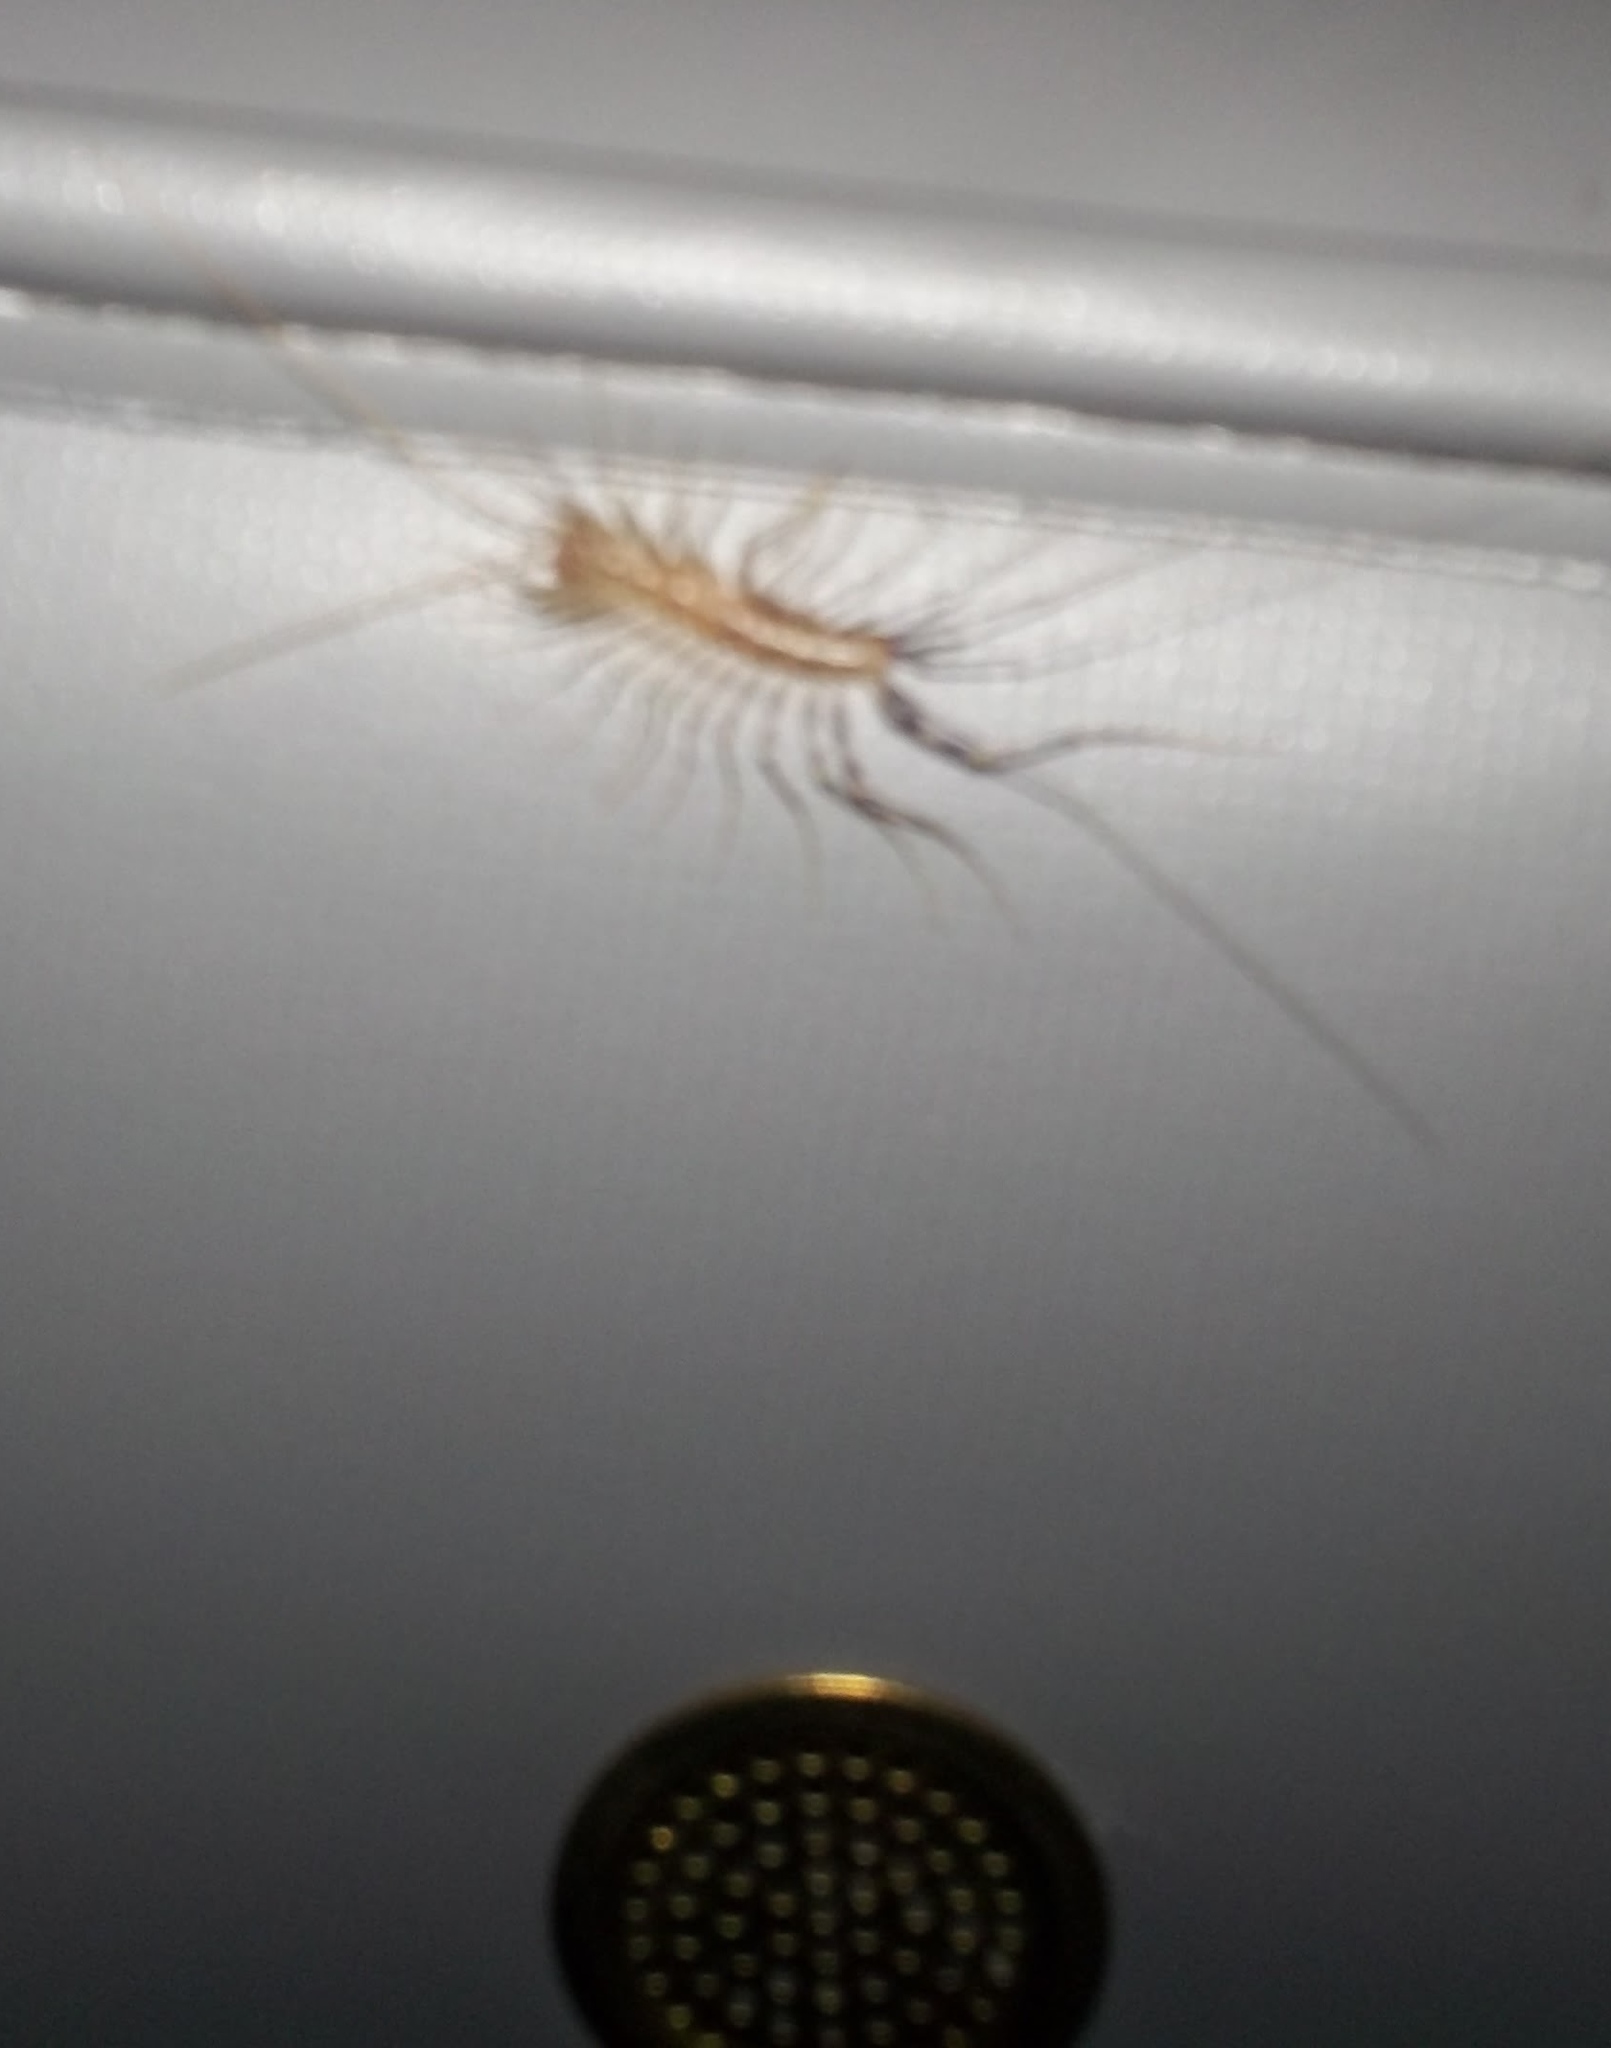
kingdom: Animalia
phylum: Arthropoda
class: Chilopoda
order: Scutigeromorpha
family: Scutigeridae
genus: Scutigera
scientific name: Scutigera coleoptrata
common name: House centipede
